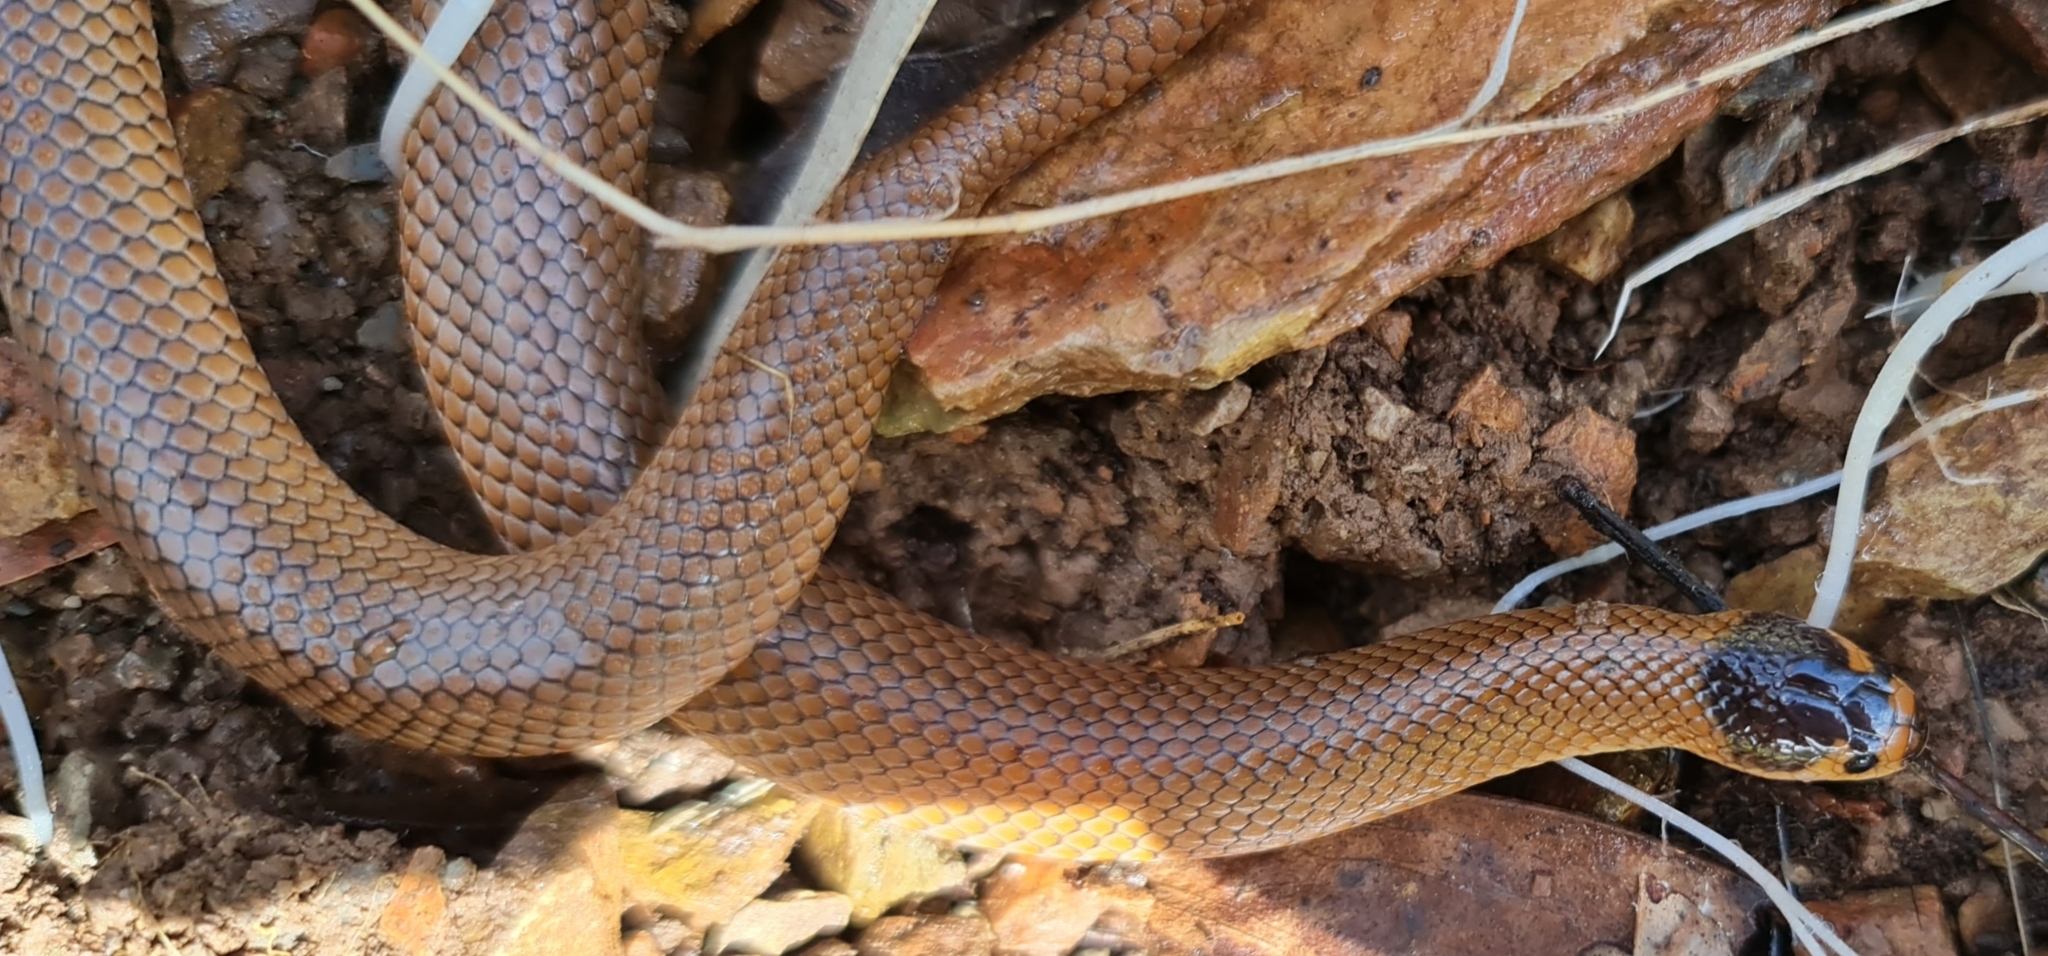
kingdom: Animalia
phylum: Chordata
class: Squamata
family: Elapidae
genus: Suta
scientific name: Suta flagellum
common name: Little whip snake
